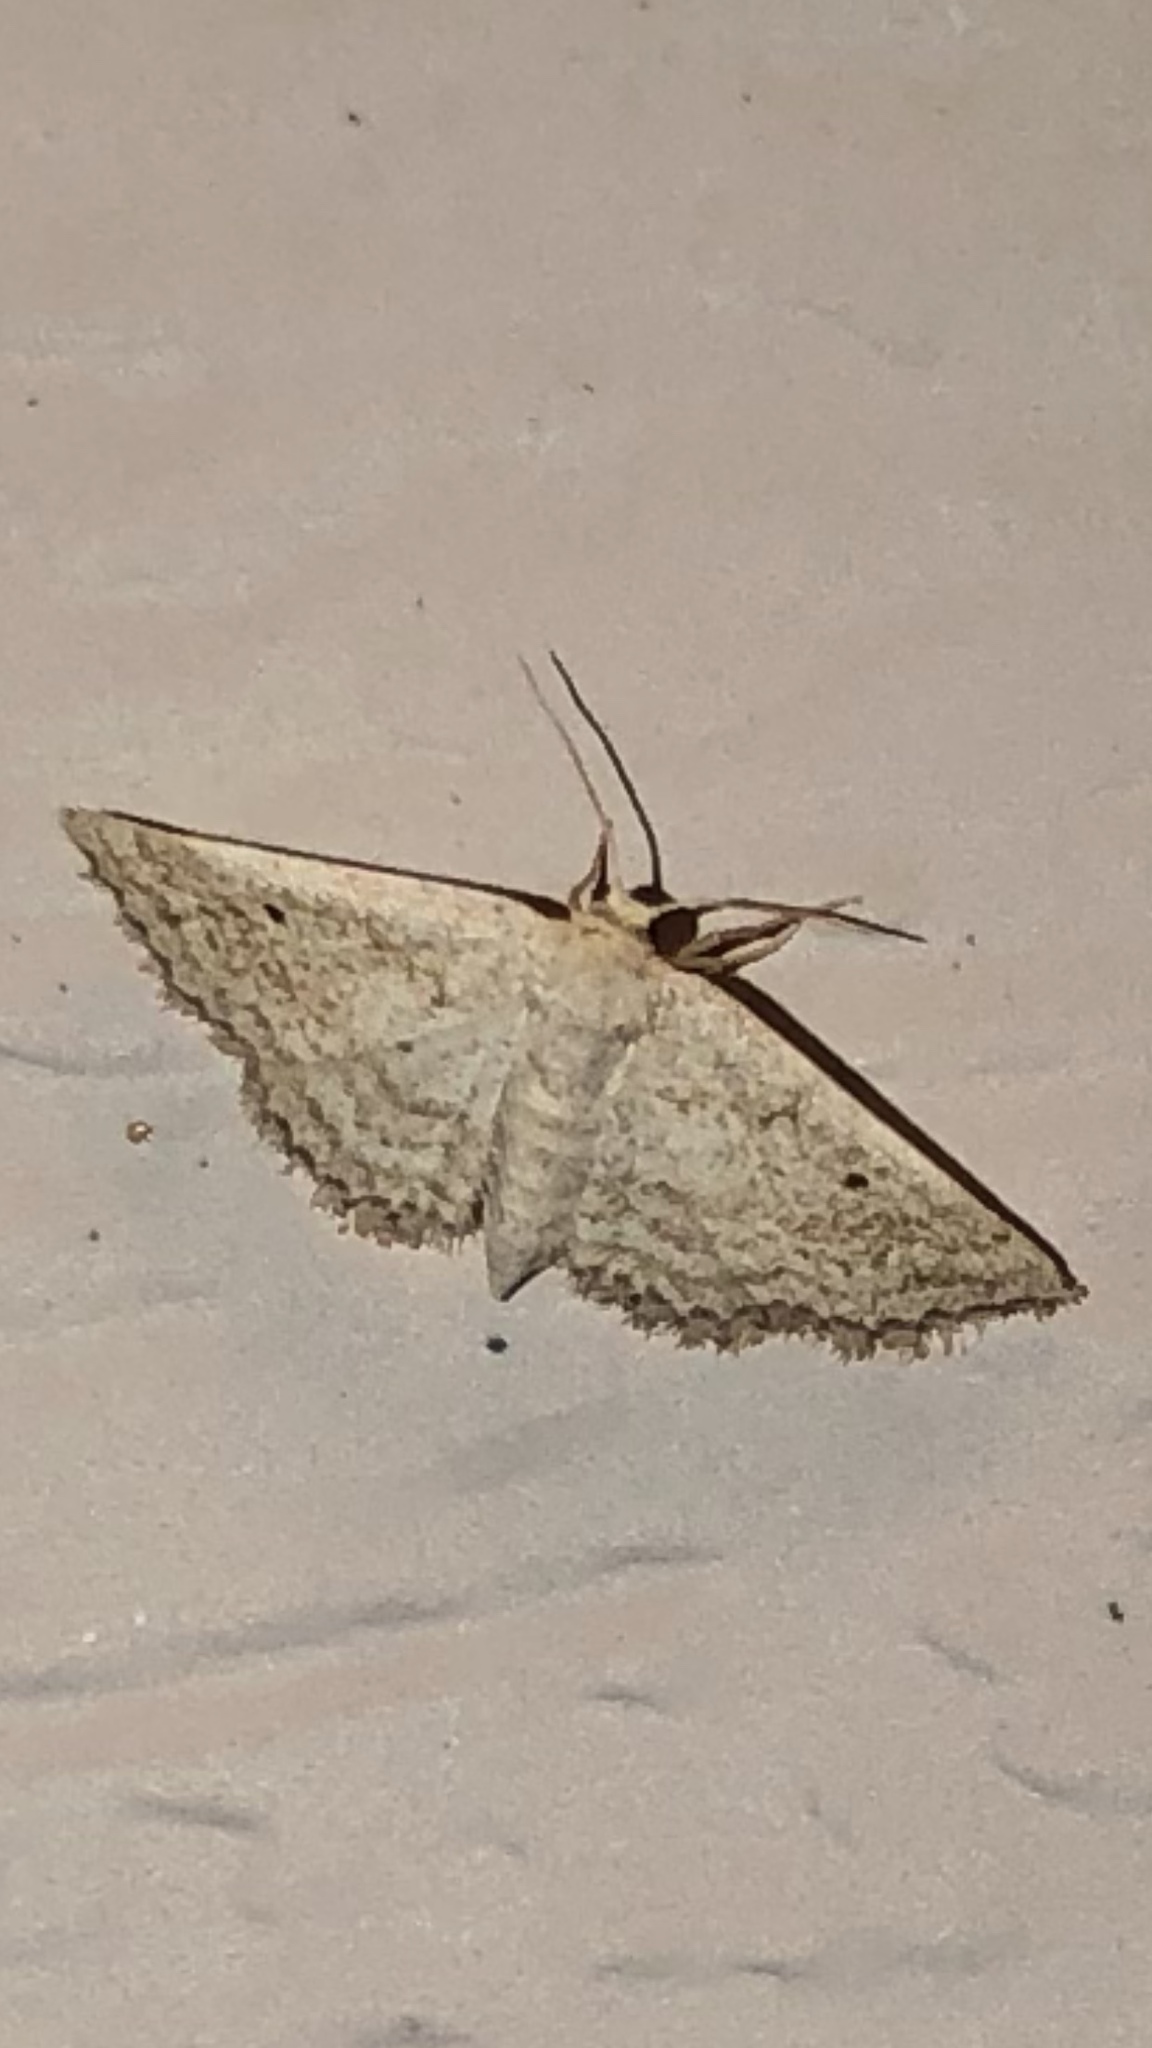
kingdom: Animalia
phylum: Arthropoda
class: Insecta
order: Lepidoptera
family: Geometridae
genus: Lobocleta
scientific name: Lobocleta ossularia
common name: Drab brown wave
